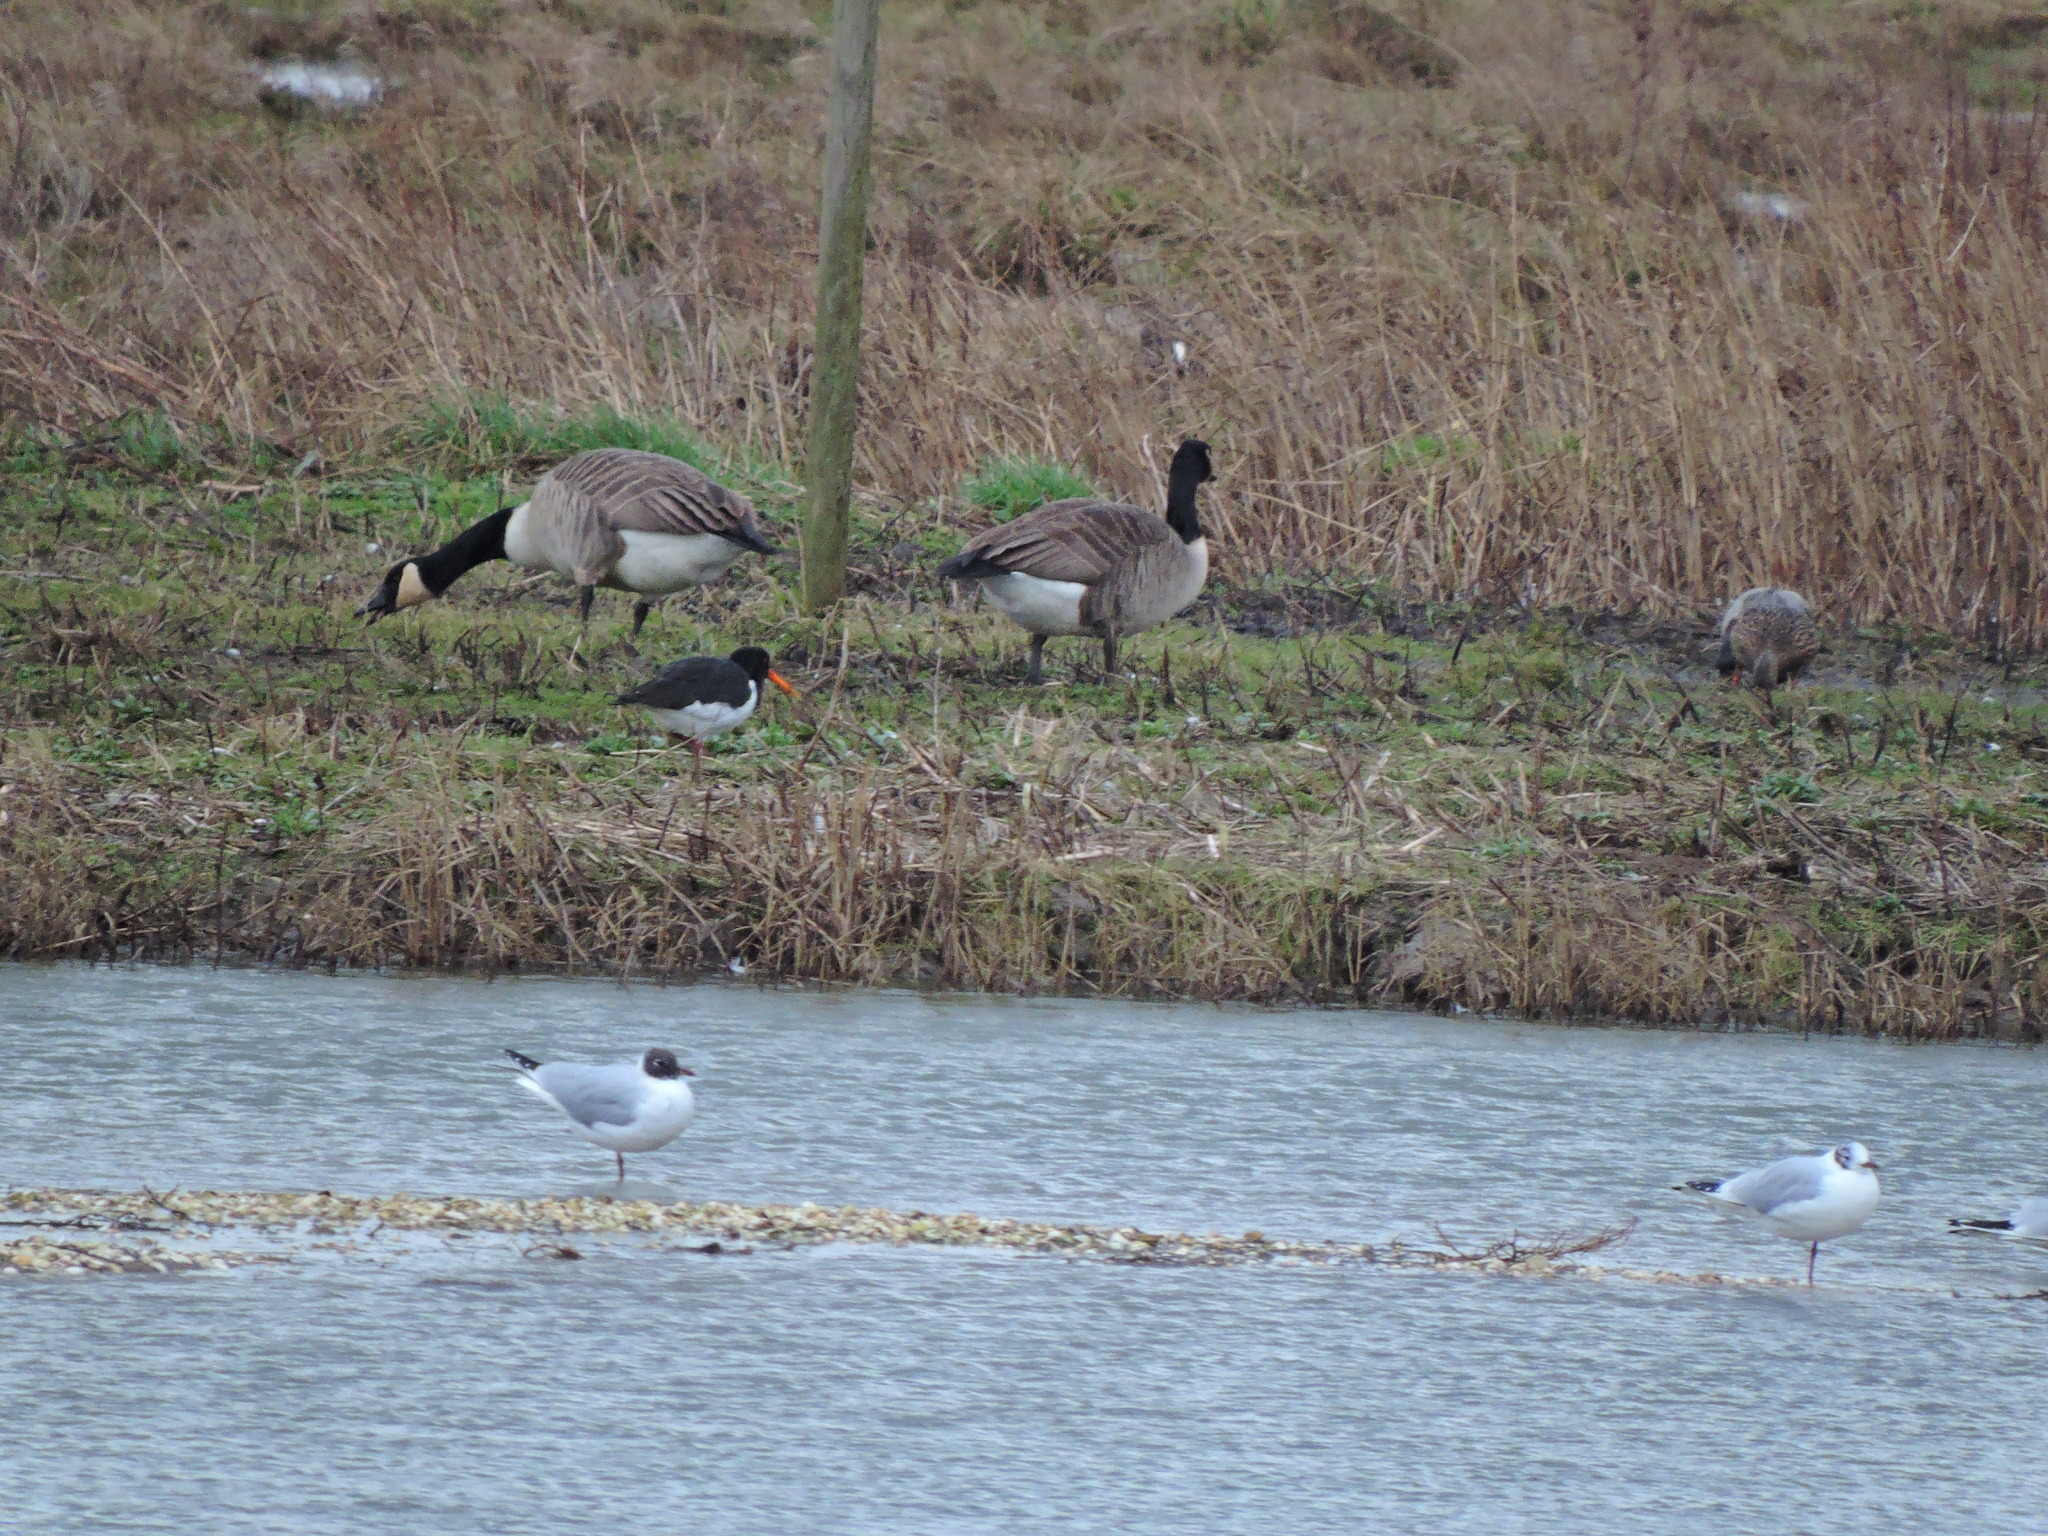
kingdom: Animalia
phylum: Chordata
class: Aves
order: Charadriiformes
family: Haematopodidae
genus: Haematopus
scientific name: Haematopus ostralegus
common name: Eurasian oystercatcher
